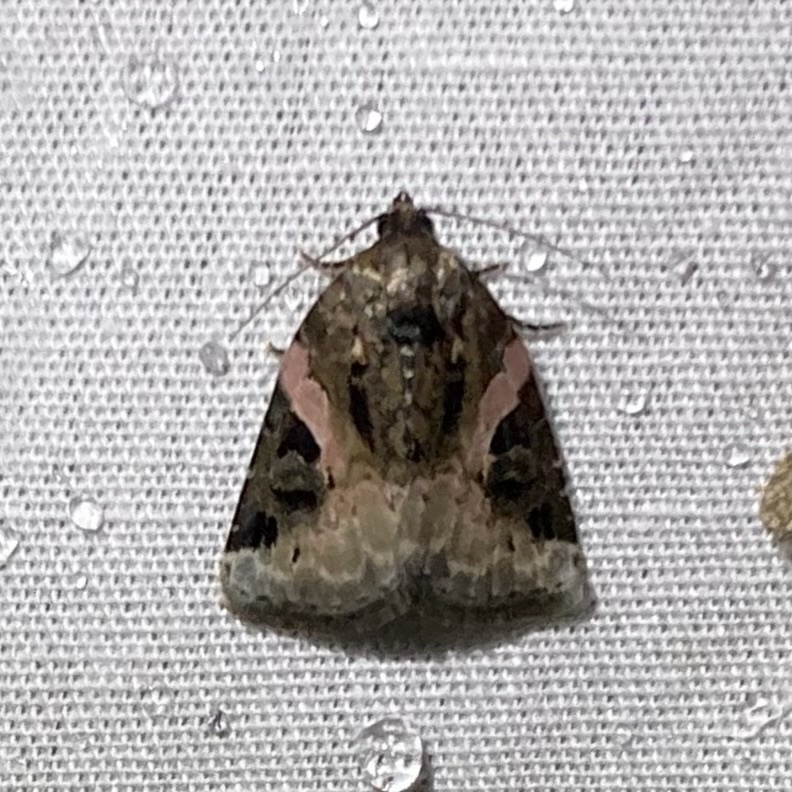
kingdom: Animalia
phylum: Arthropoda
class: Insecta
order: Lepidoptera
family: Noctuidae
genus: Pseudeustrotia
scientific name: Pseudeustrotia carneola
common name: Pink-barred lithacodia moth
